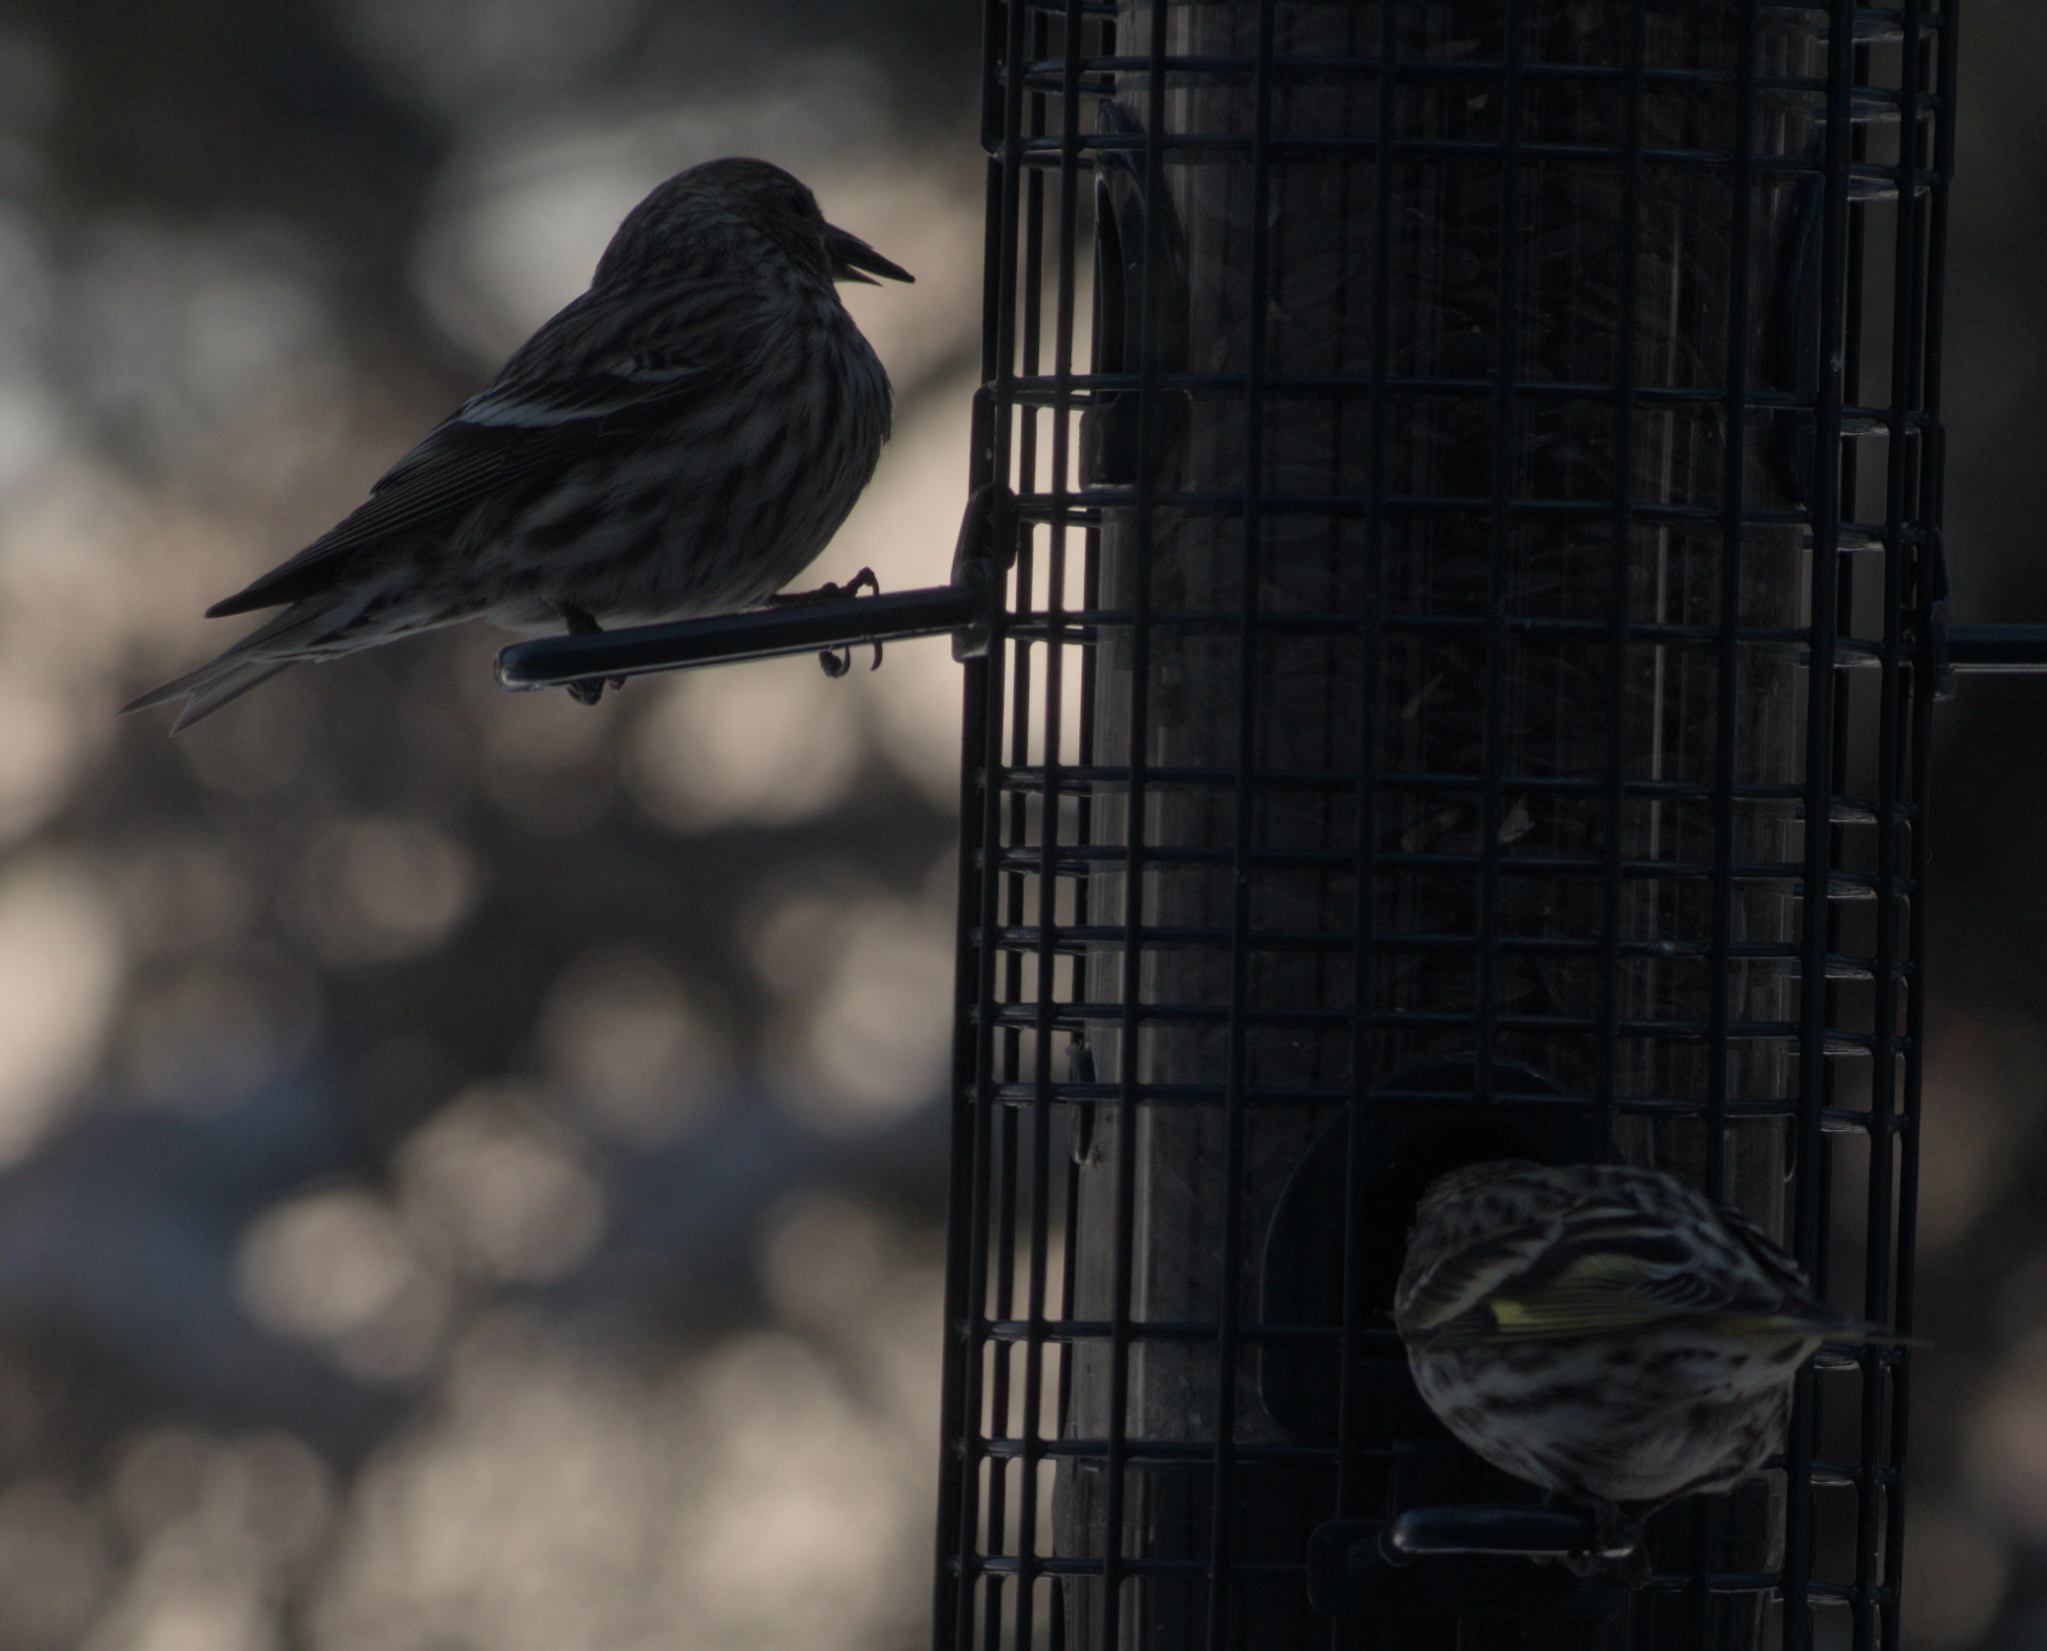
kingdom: Animalia
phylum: Chordata
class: Aves
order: Passeriformes
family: Fringillidae
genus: Spinus
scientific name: Spinus pinus
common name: Pine siskin
